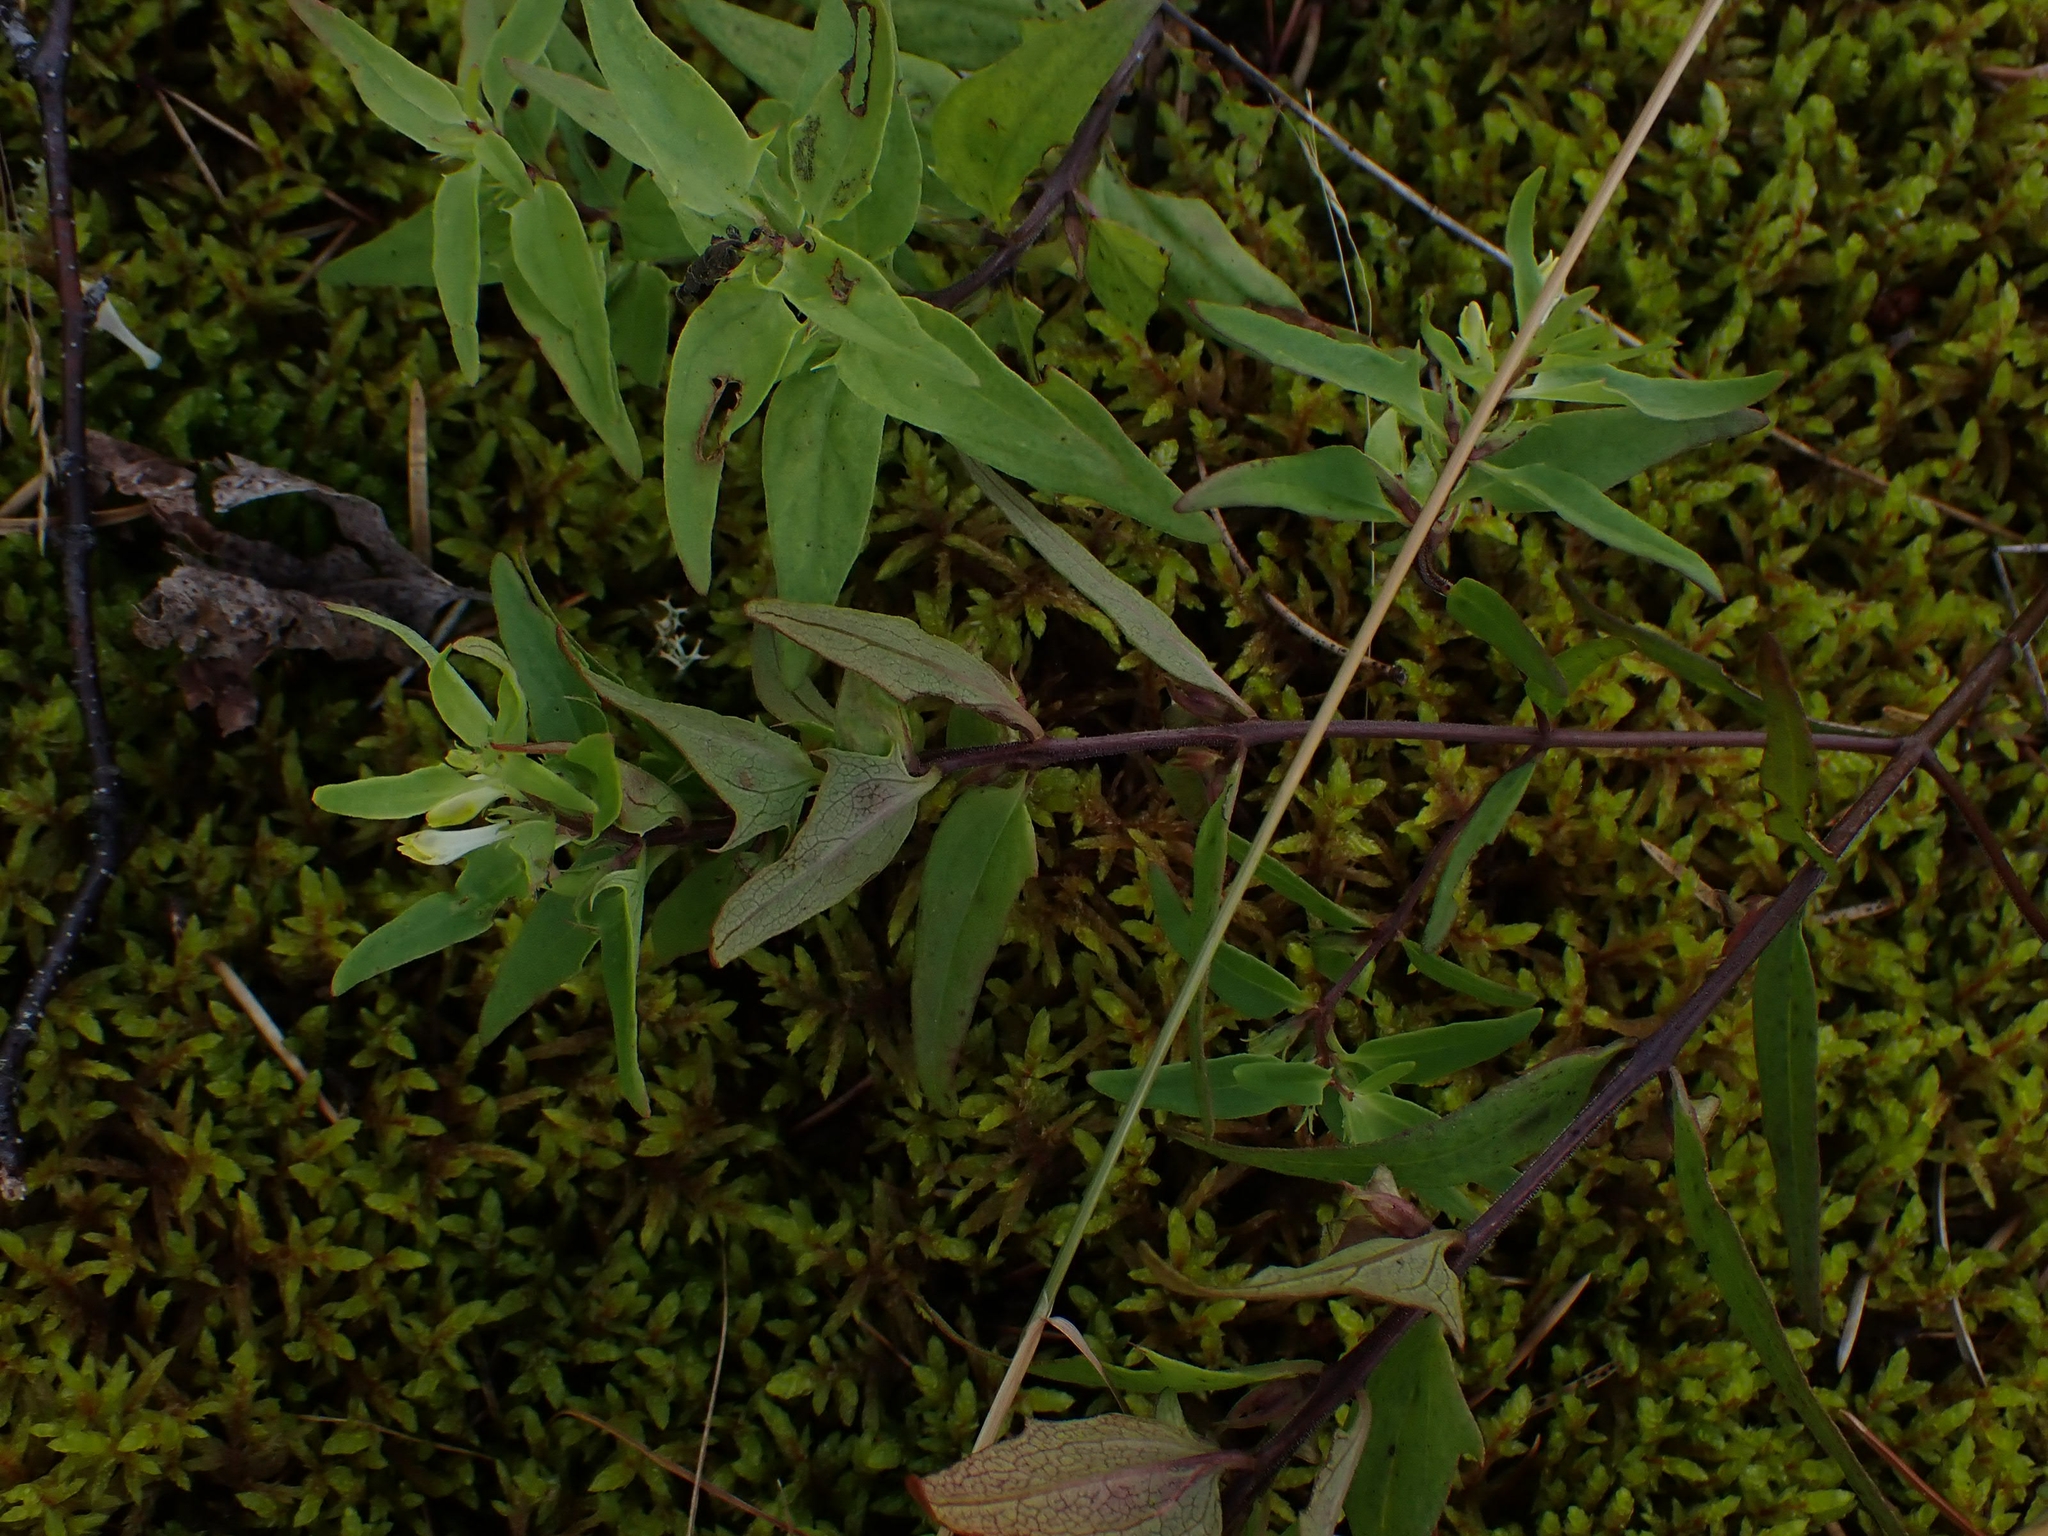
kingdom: Plantae
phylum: Tracheophyta
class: Magnoliopsida
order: Lamiales
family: Orobanchaceae
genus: Melampyrum
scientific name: Melampyrum lineare
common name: American cow-wheat
